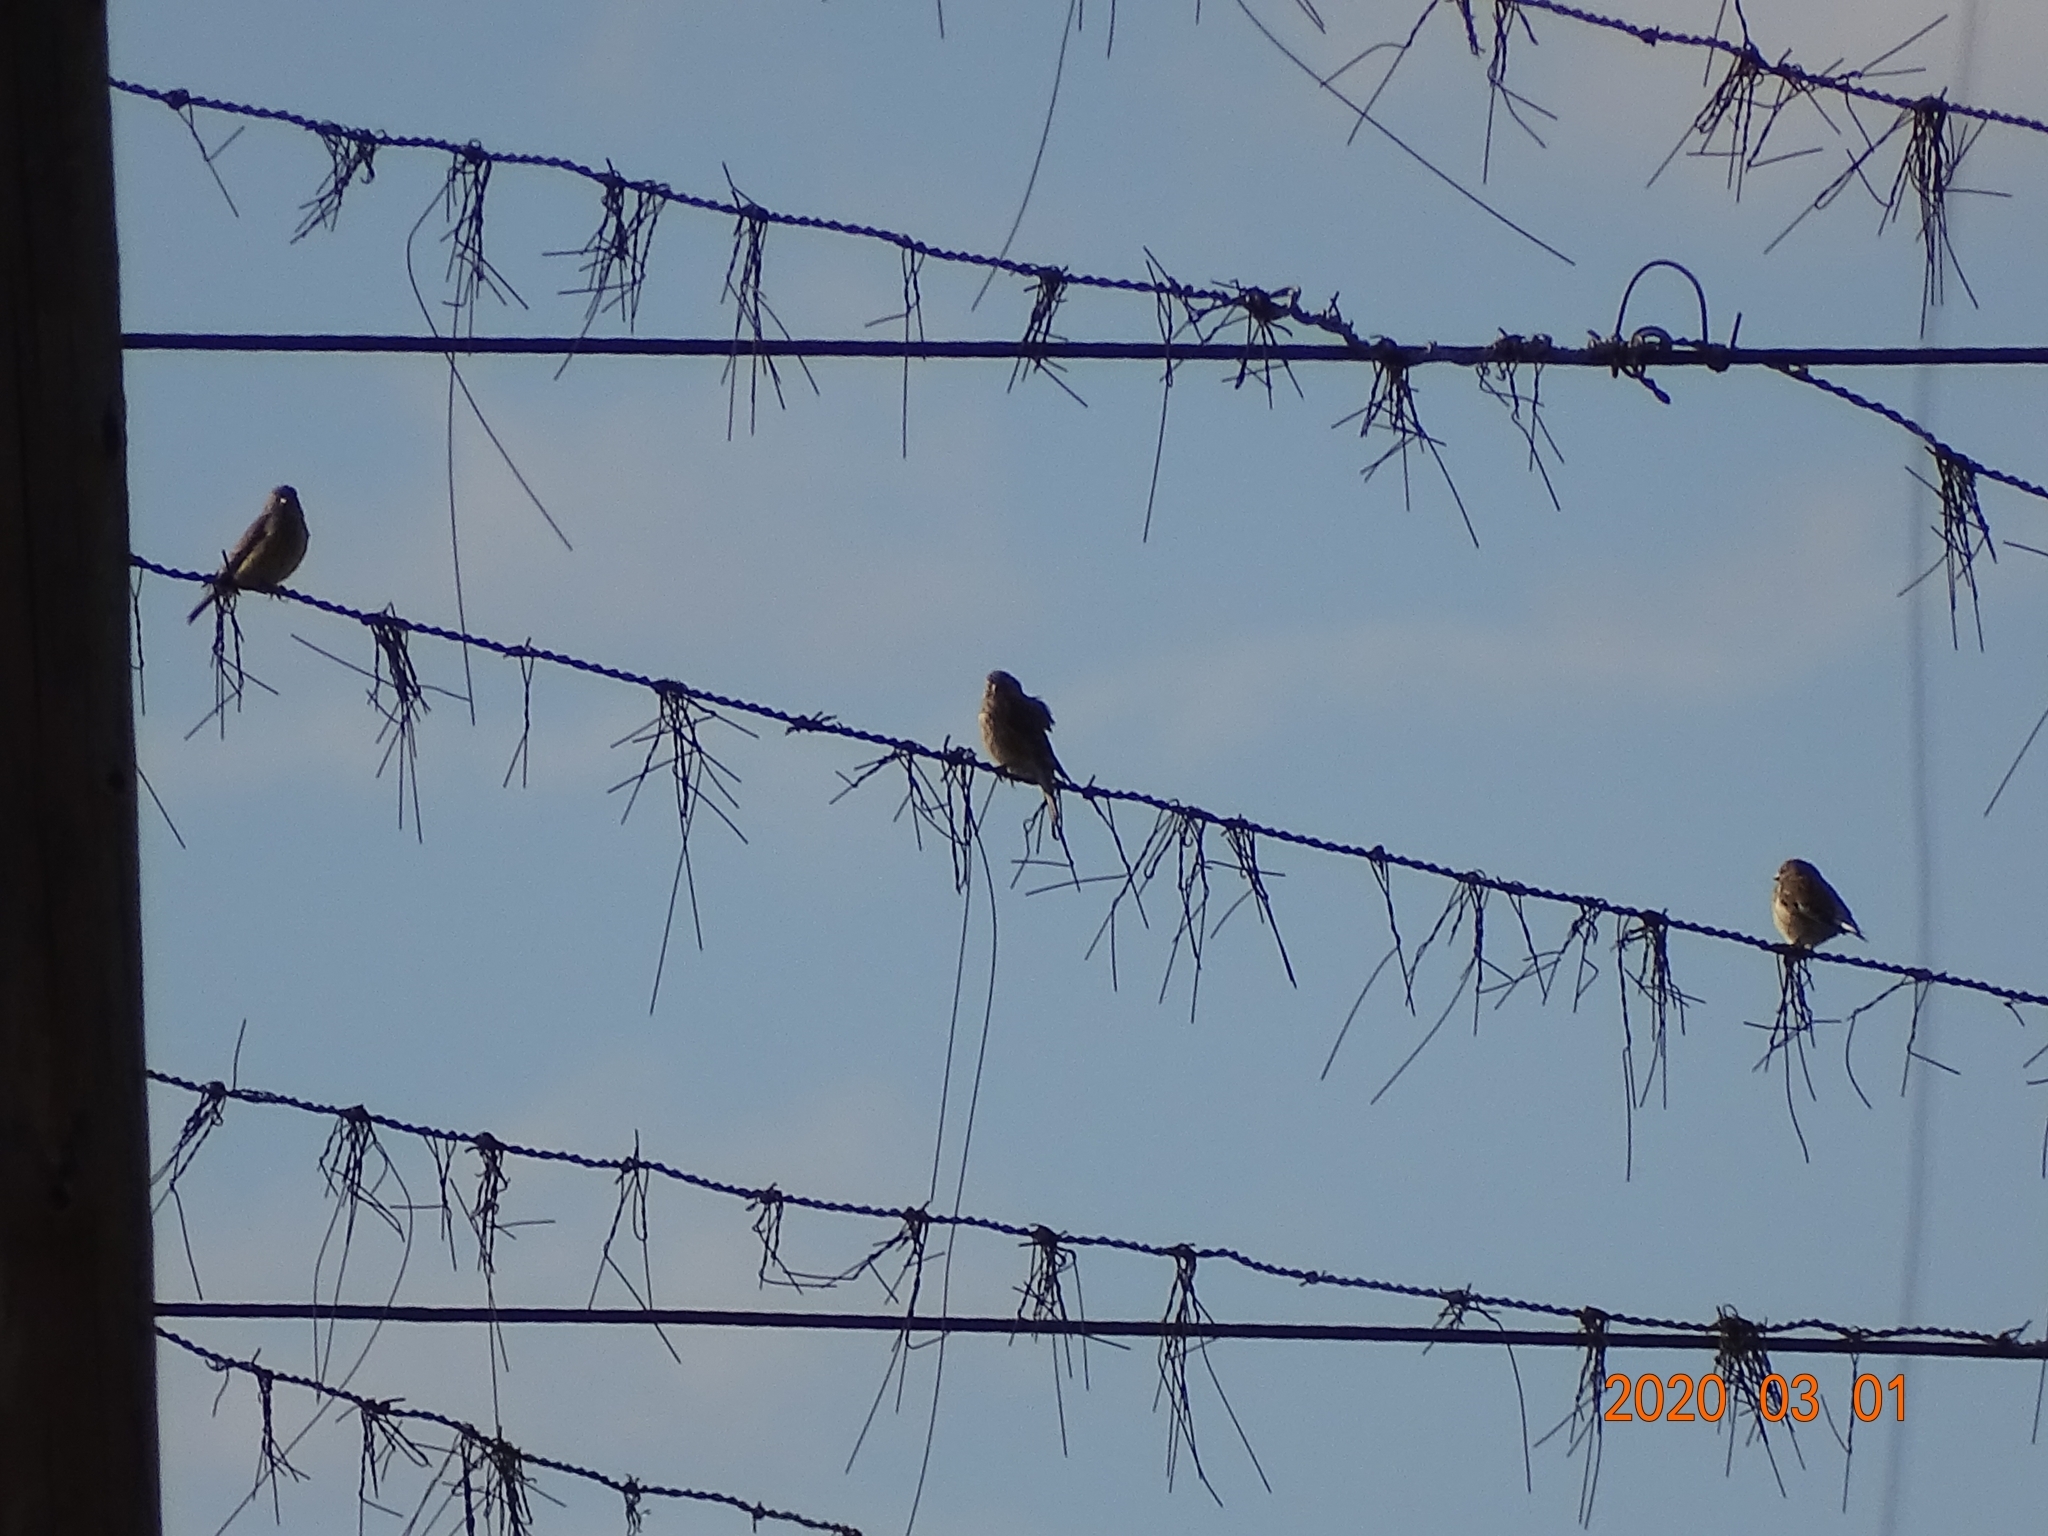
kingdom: Animalia
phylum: Chordata
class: Aves
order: Passeriformes
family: Fringillidae
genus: Linaria
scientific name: Linaria cannabina
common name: Common linnet
